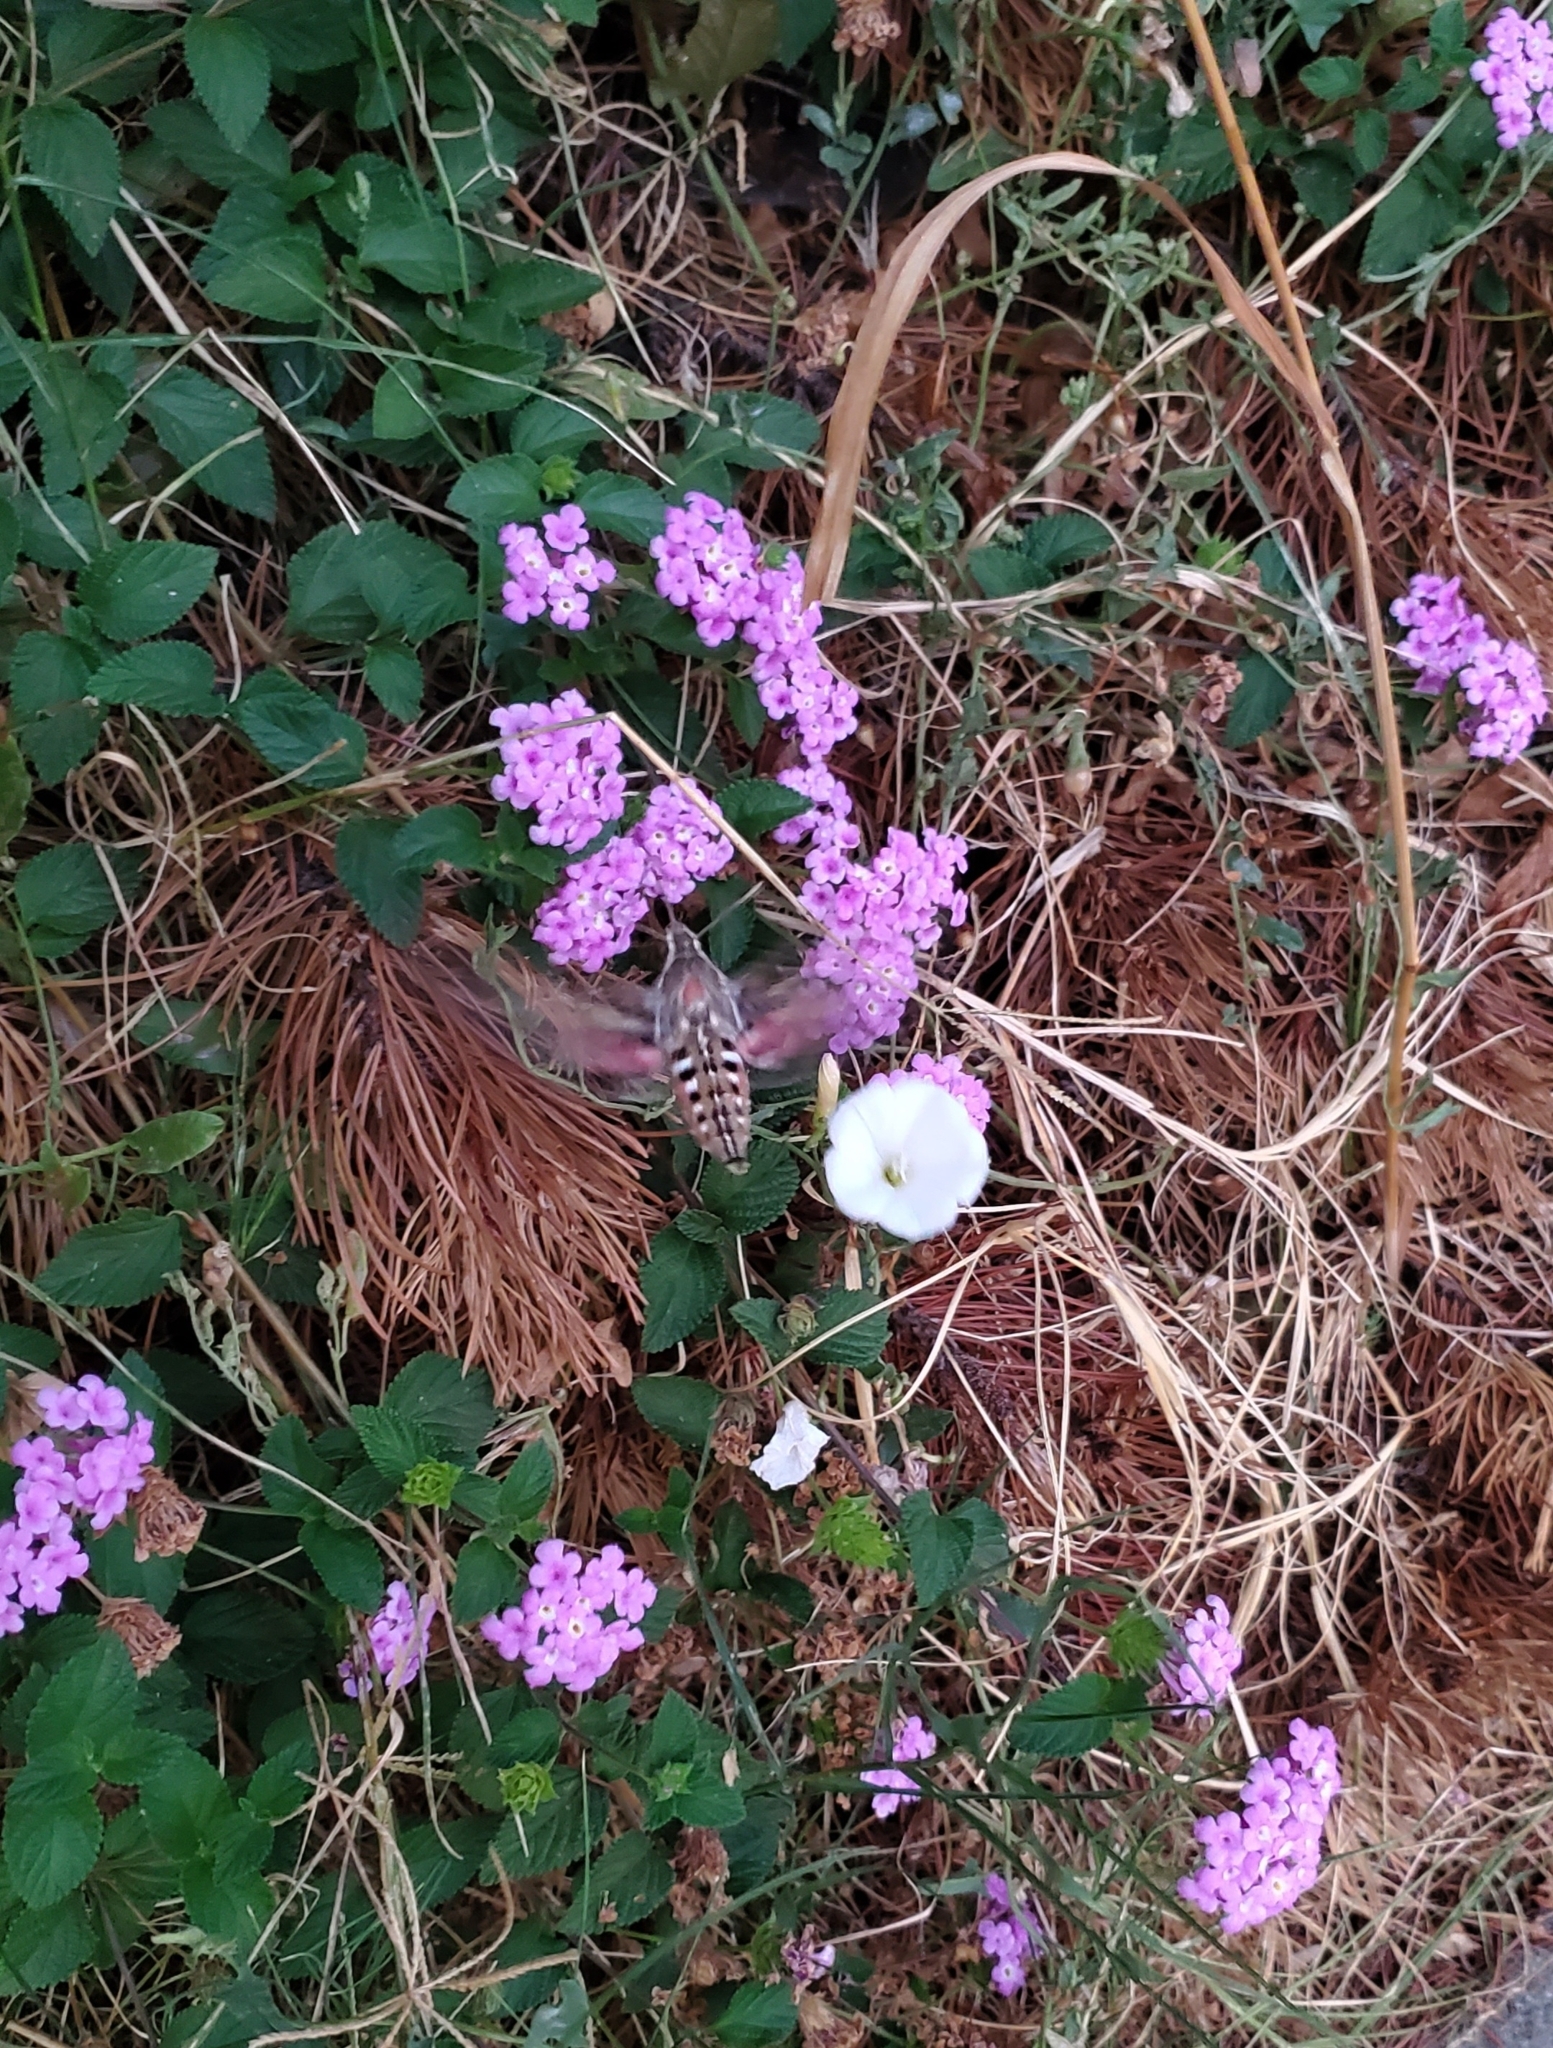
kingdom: Animalia
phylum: Arthropoda
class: Insecta
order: Lepidoptera
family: Sphingidae
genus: Hyles
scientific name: Hyles lineata
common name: White-lined sphinx
